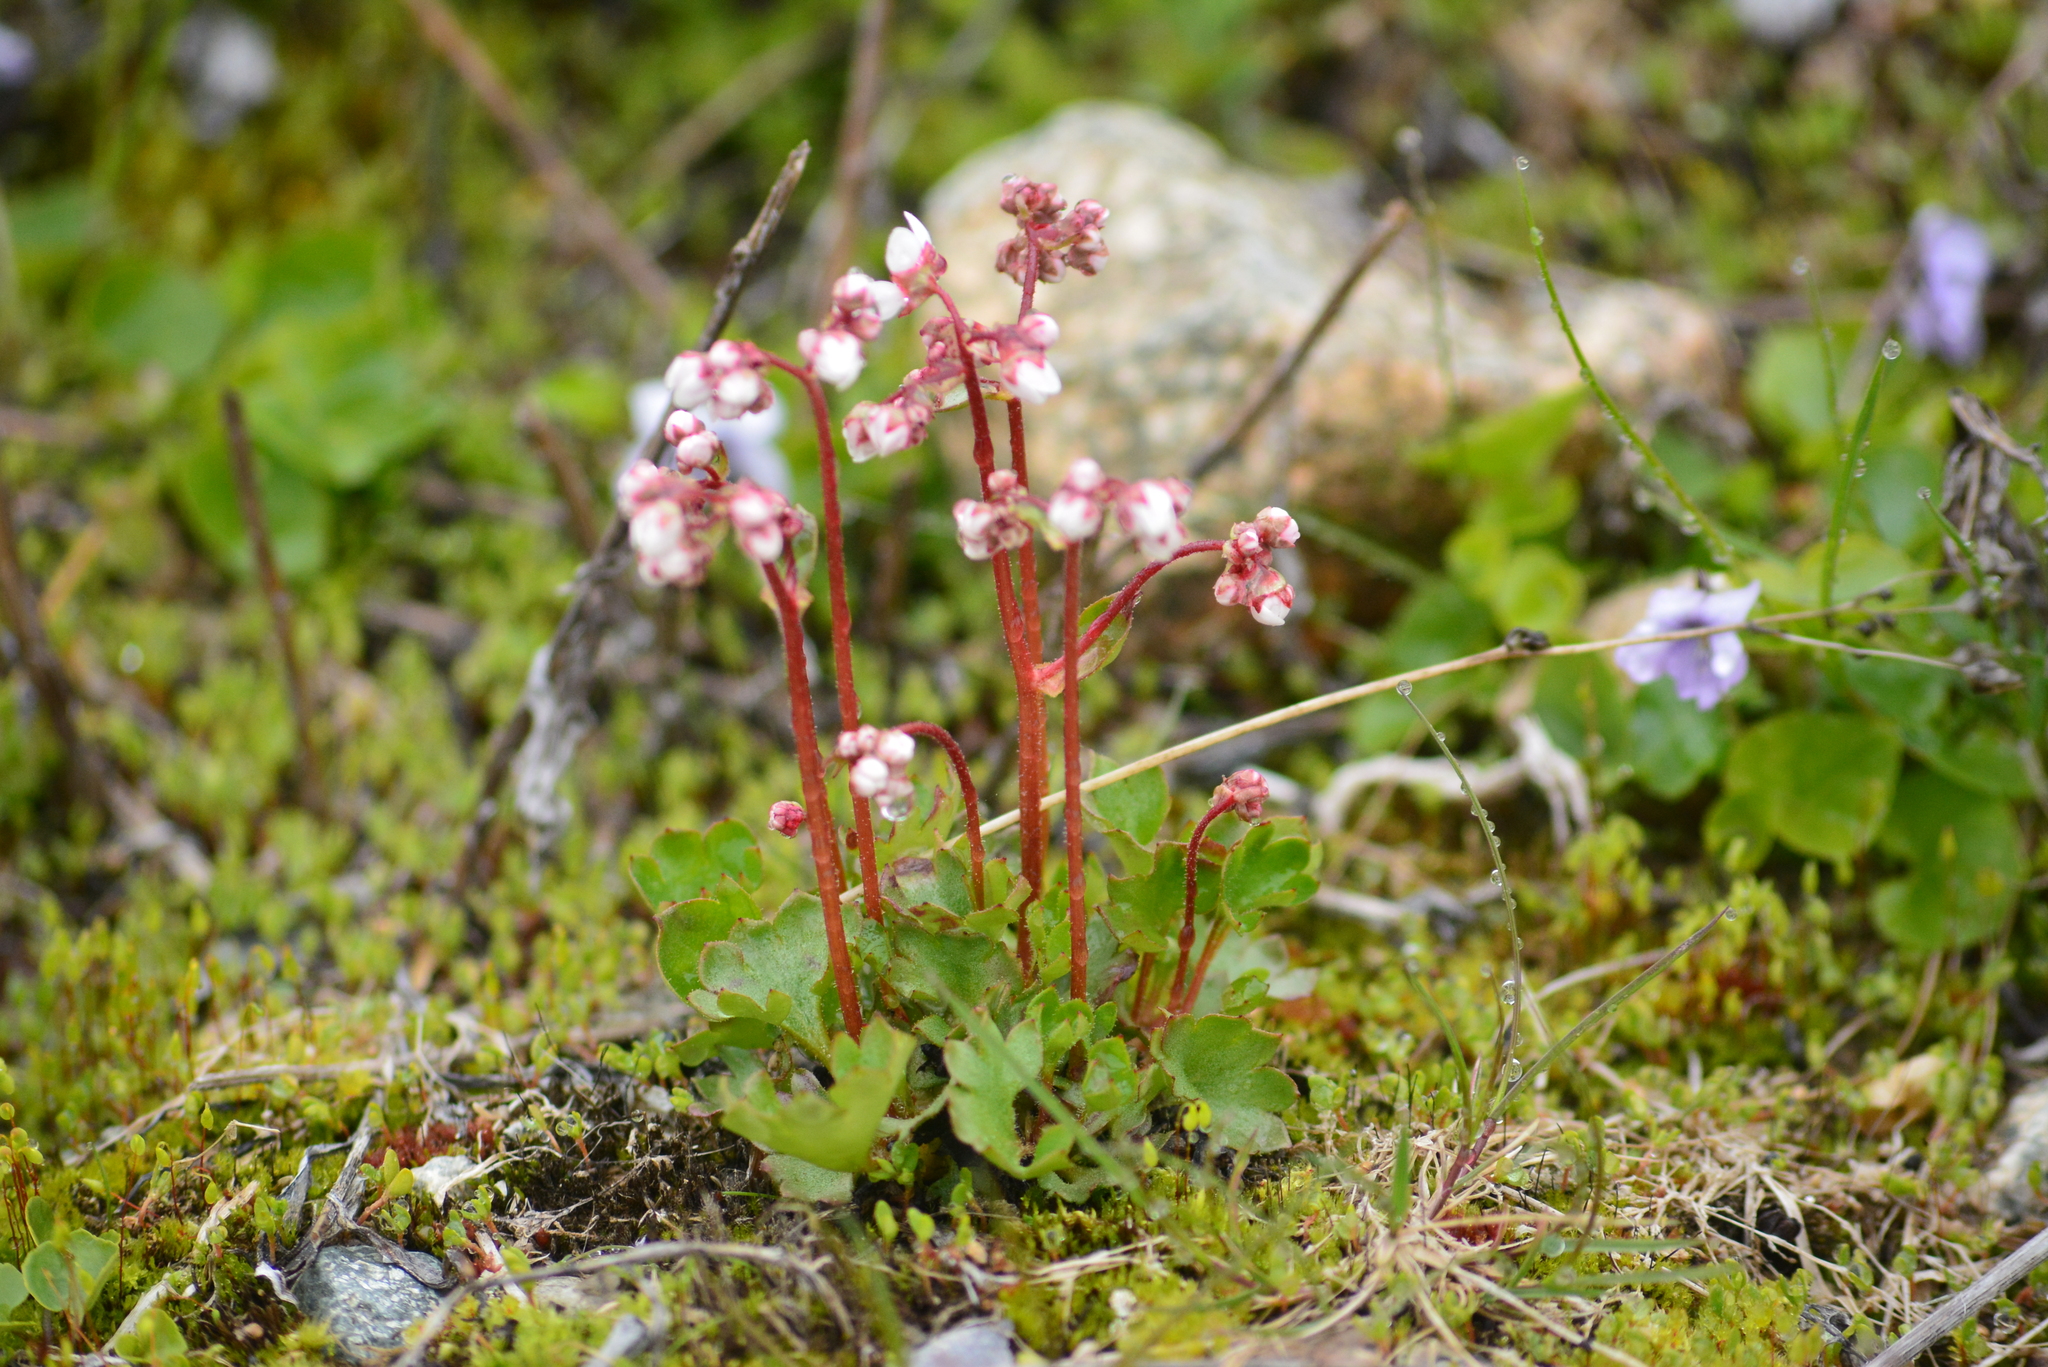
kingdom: Plantae
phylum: Tracheophyta
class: Magnoliopsida
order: Saxifragales
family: Saxifragaceae
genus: Micranthes
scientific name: Micranthes nudicaulis
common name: Nakedstem saxifrage
